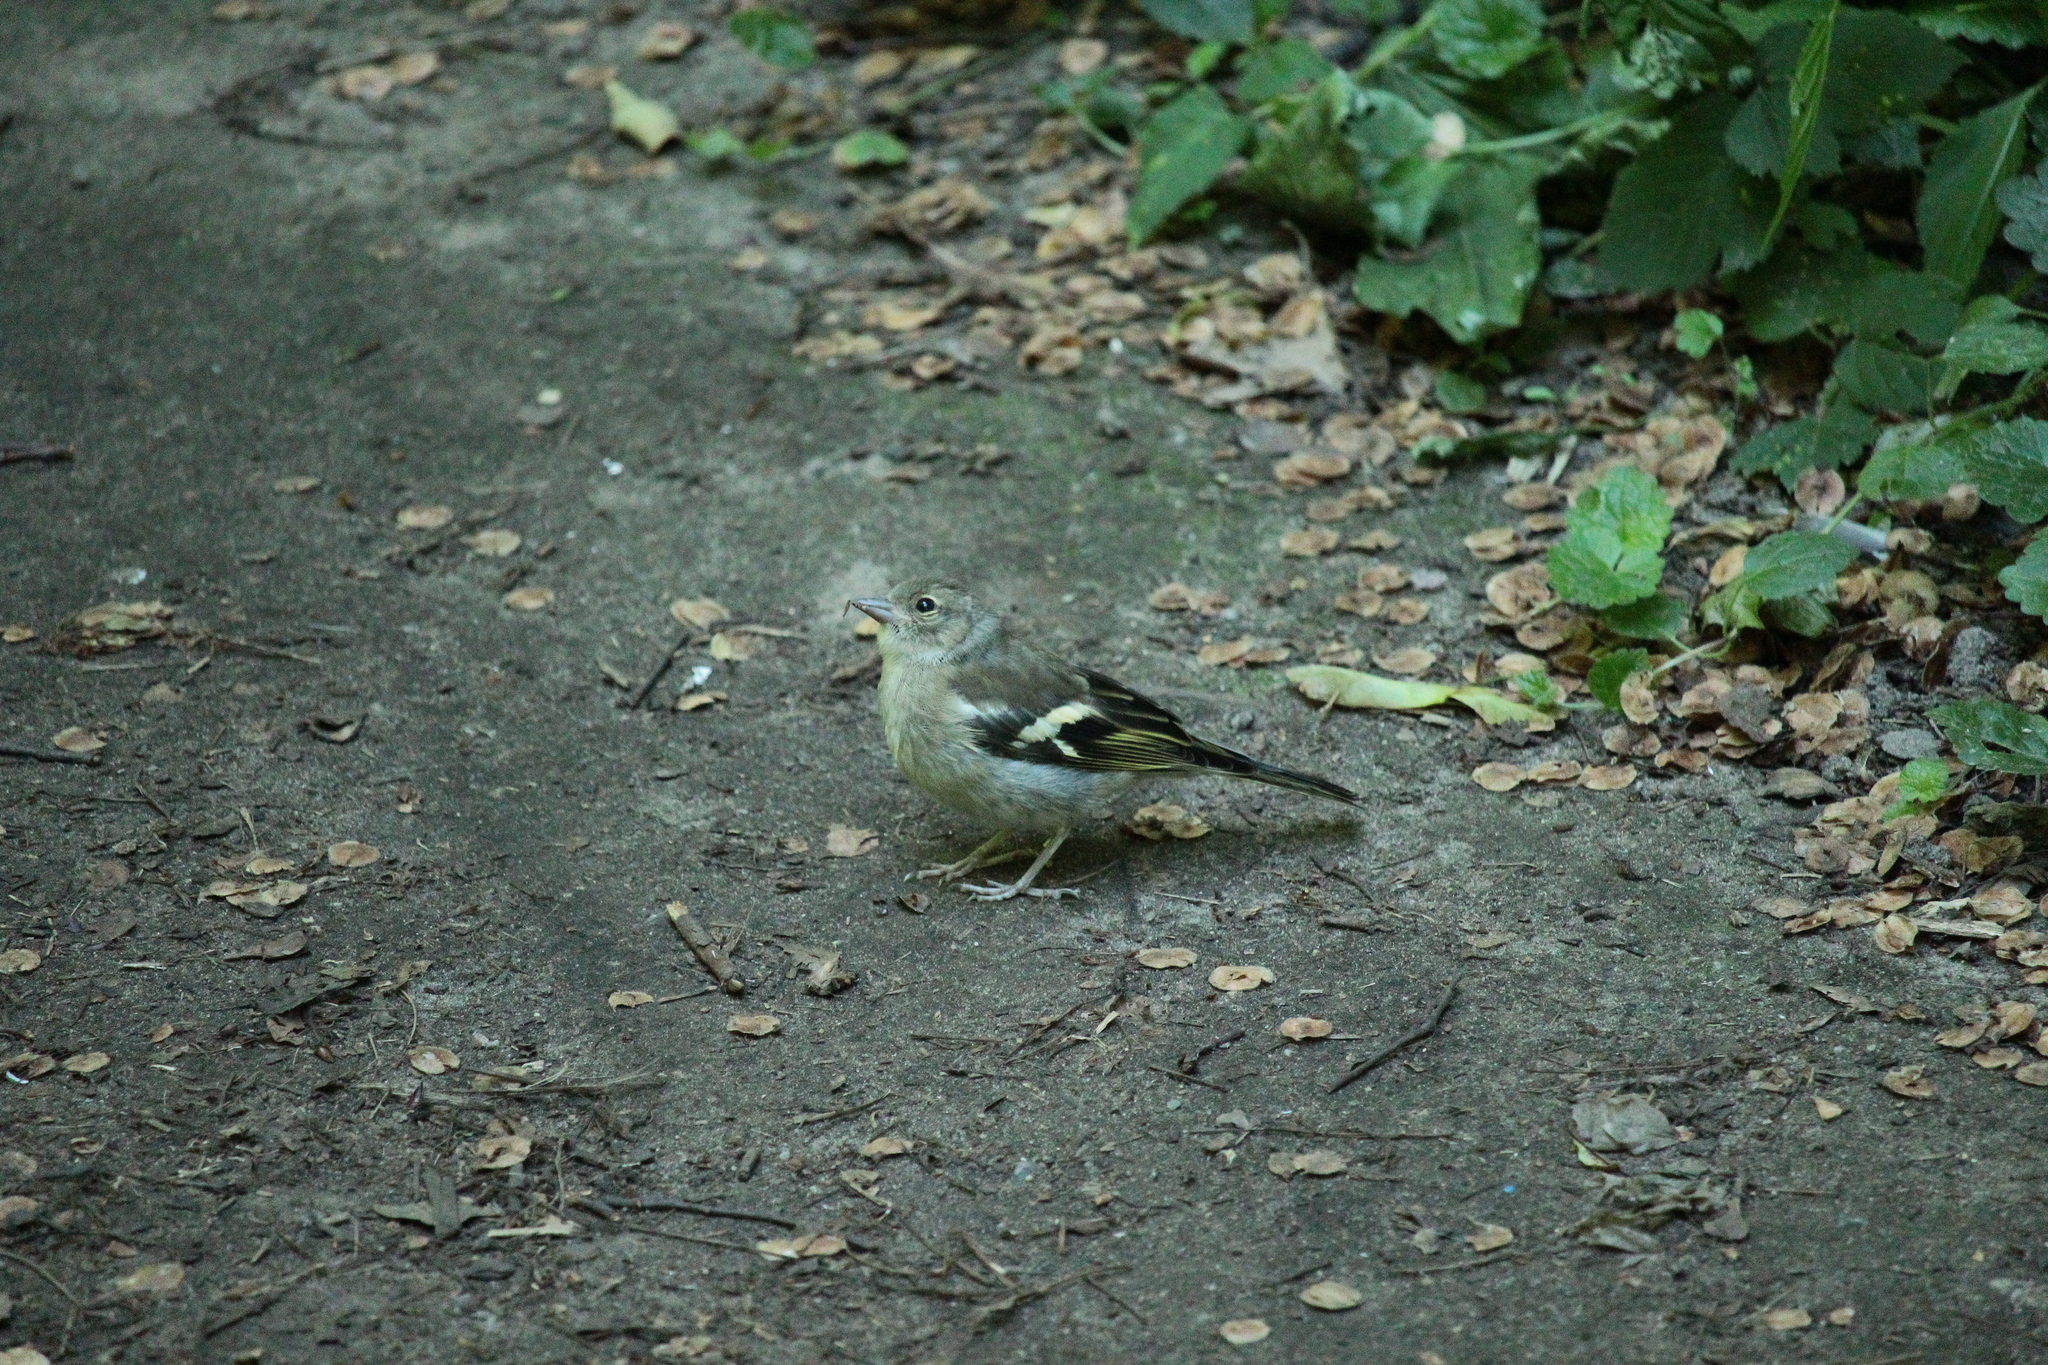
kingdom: Animalia
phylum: Chordata
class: Aves
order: Passeriformes
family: Fringillidae
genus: Fringilla
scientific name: Fringilla coelebs
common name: Common chaffinch
